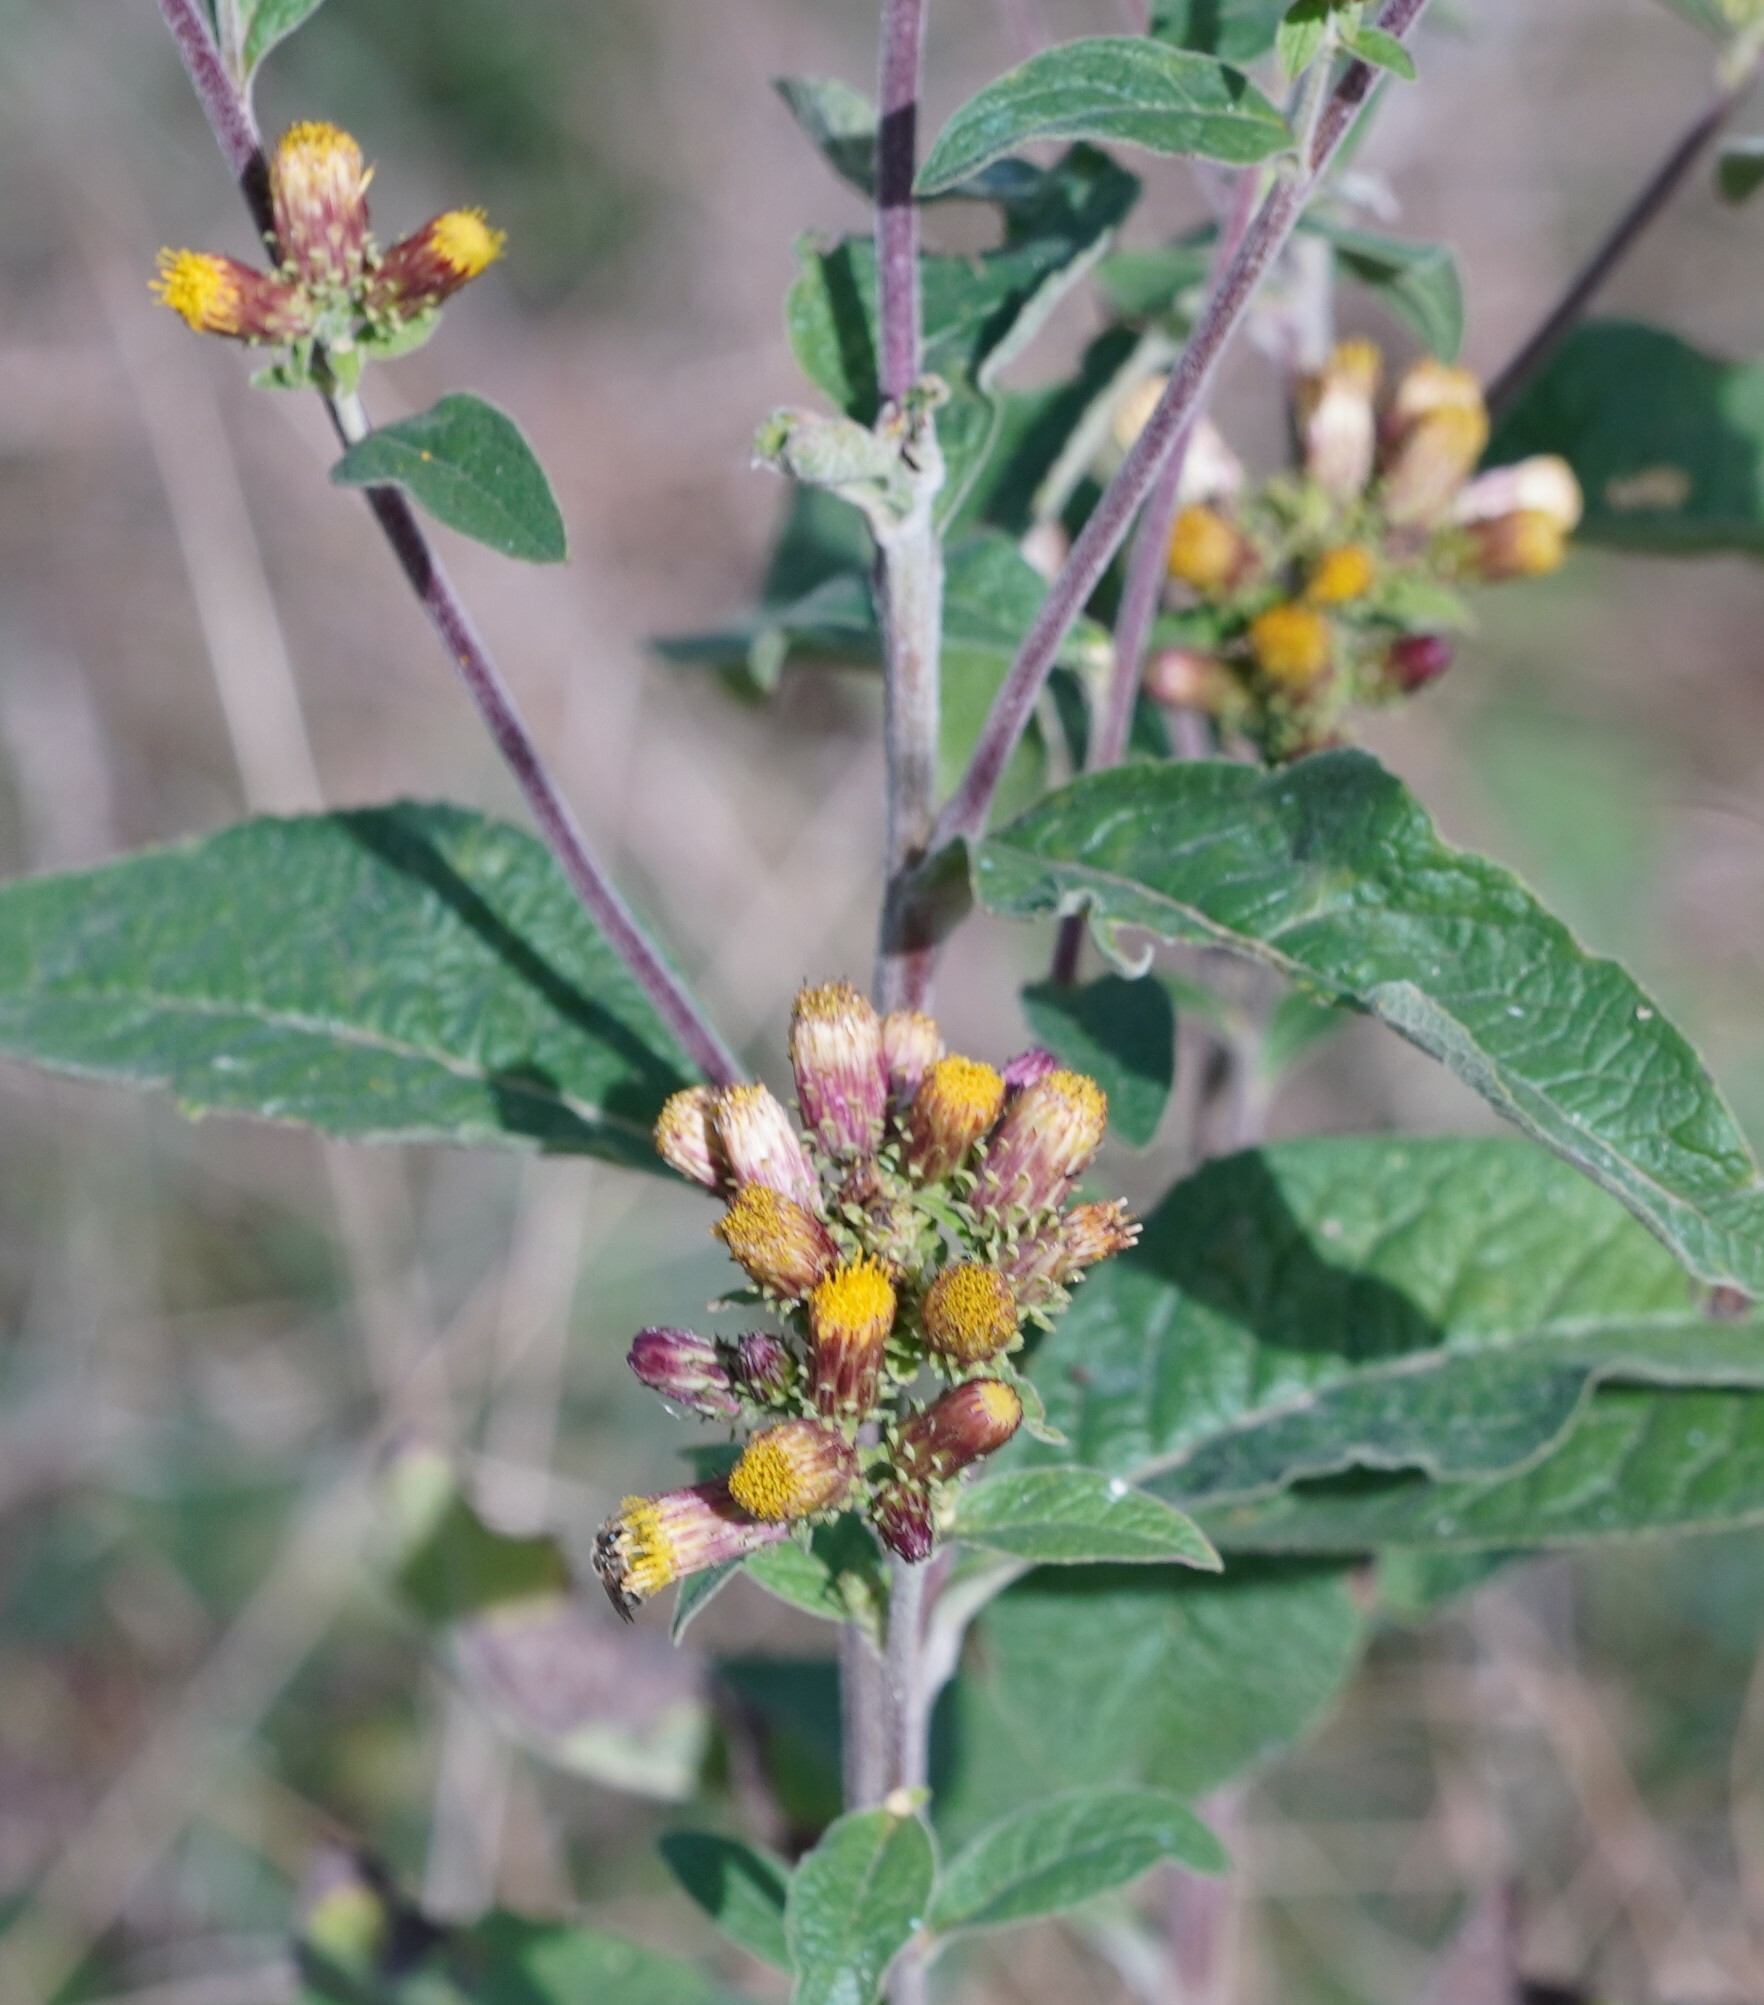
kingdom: Plantae
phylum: Tracheophyta
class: Magnoliopsida
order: Asterales
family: Asteraceae
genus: Pentanema
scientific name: Pentanema squarrosum
